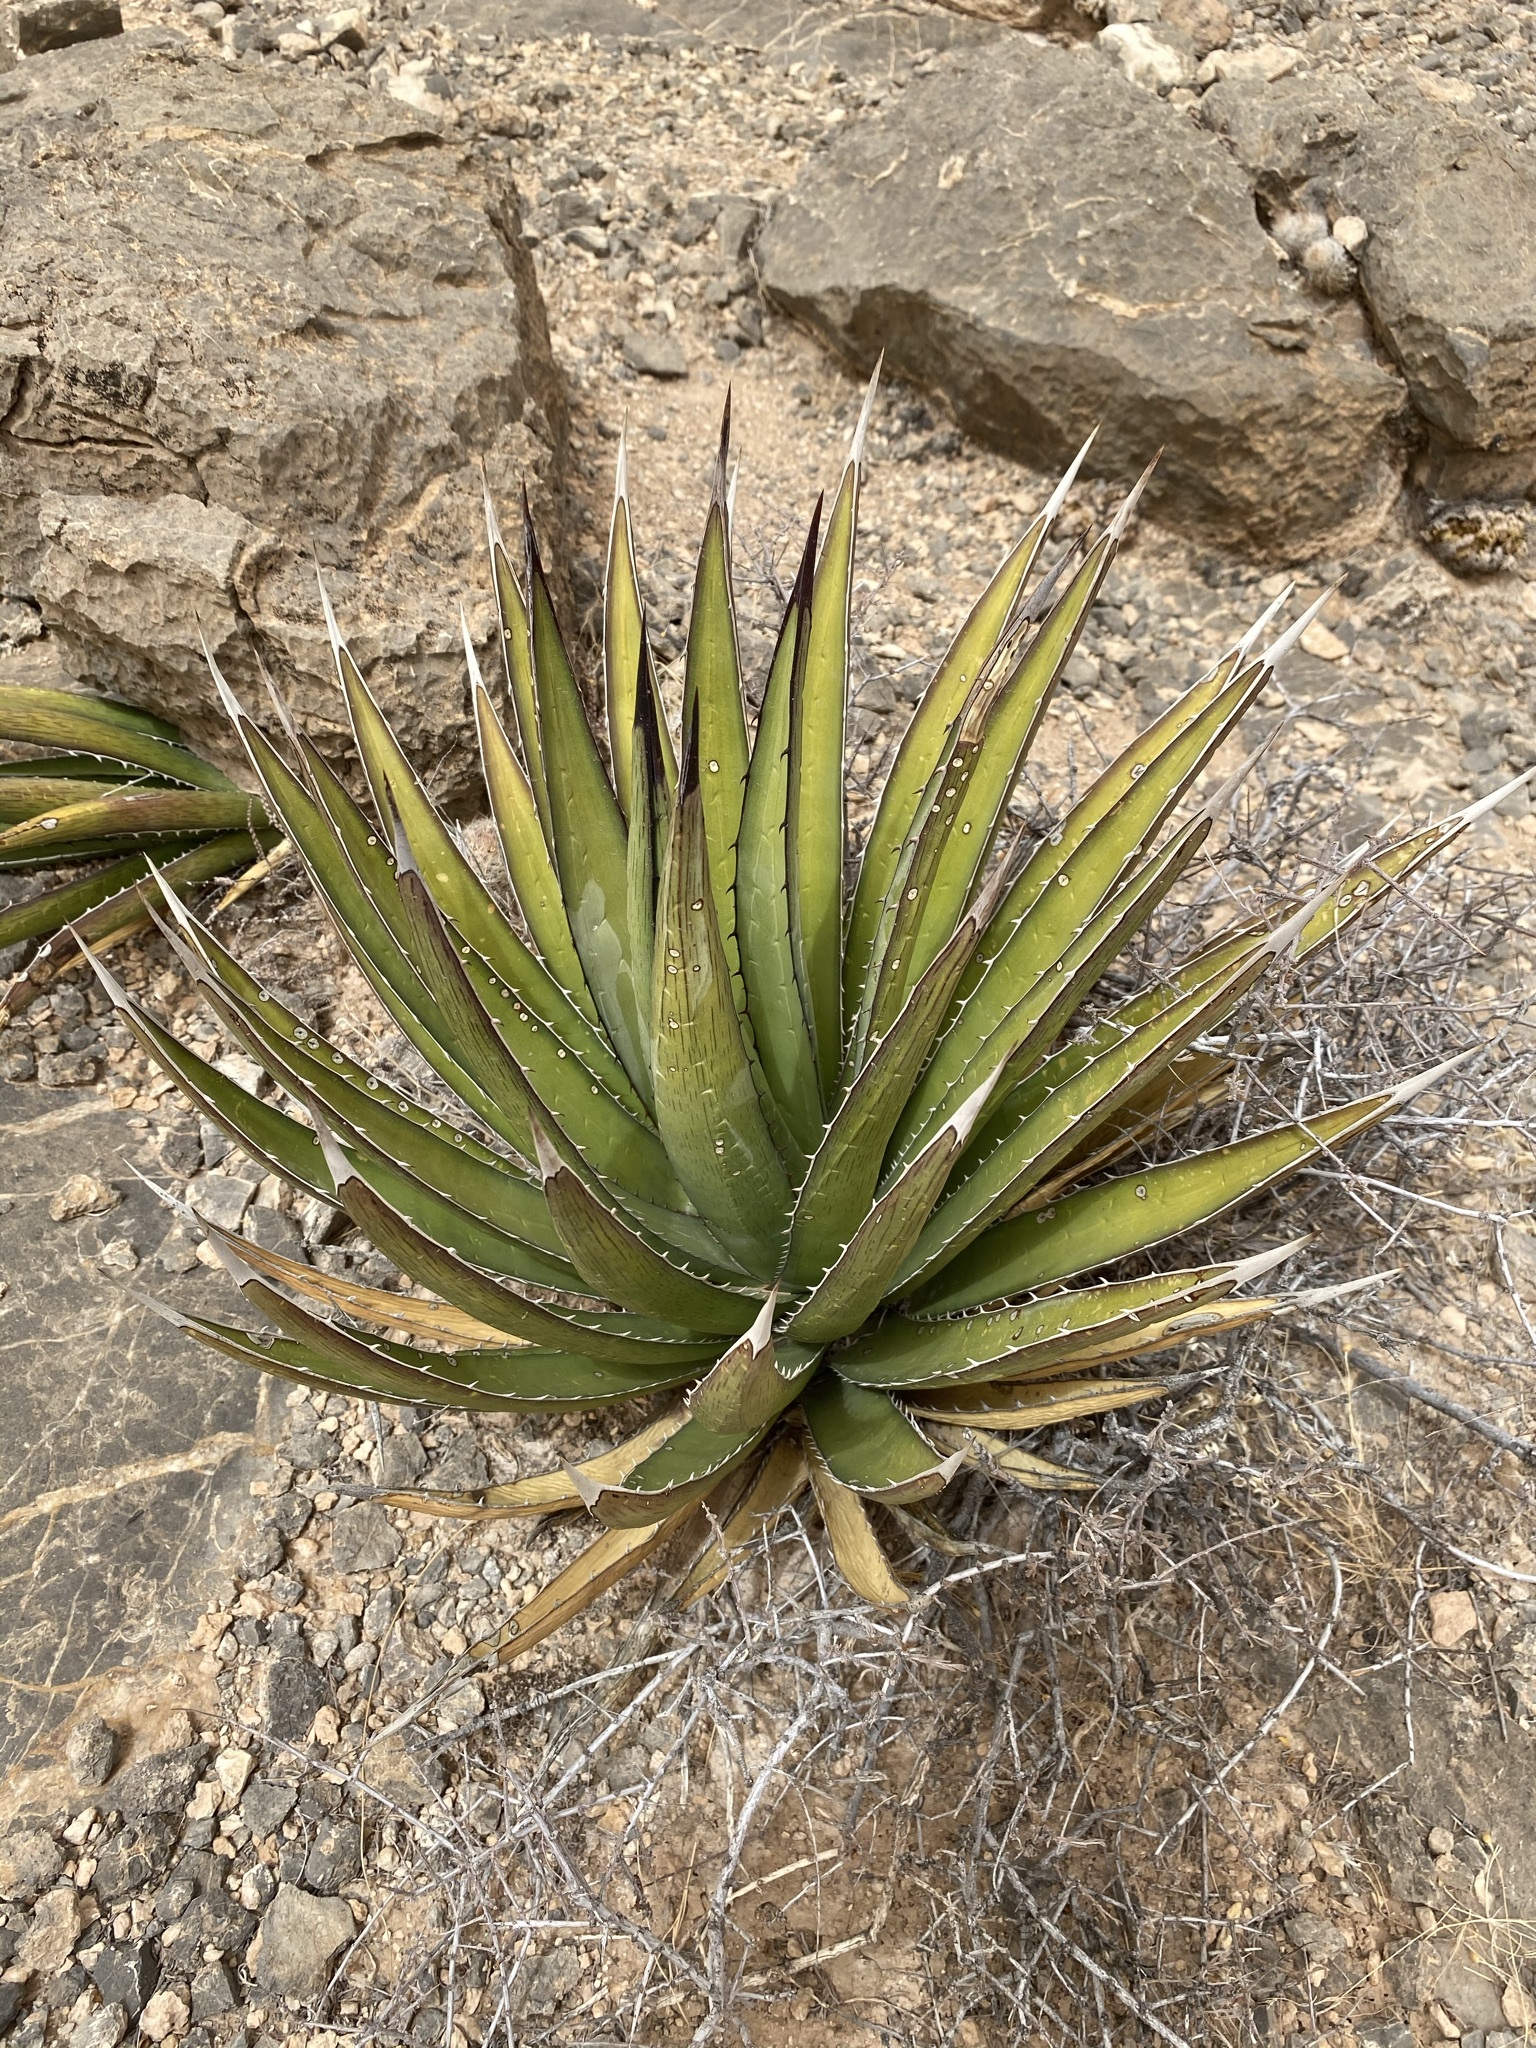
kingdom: Plantae
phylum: Tracheophyta
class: Liliopsida
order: Asparagales
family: Asparagaceae
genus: Agave
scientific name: Agave lechuguilla
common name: Lecheguilla agave
